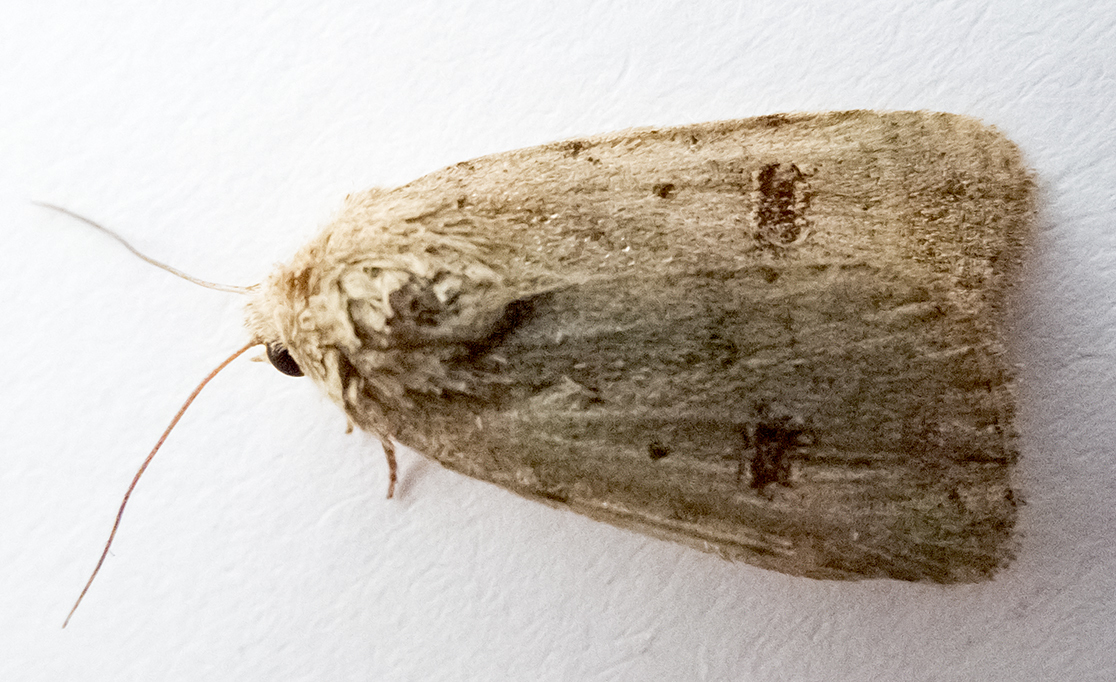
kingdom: Animalia
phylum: Arthropoda
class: Insecta
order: Lepidoptera
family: Noctuidae
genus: Caradrina
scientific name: Caradrina kadenii
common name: Clancy's rustic
